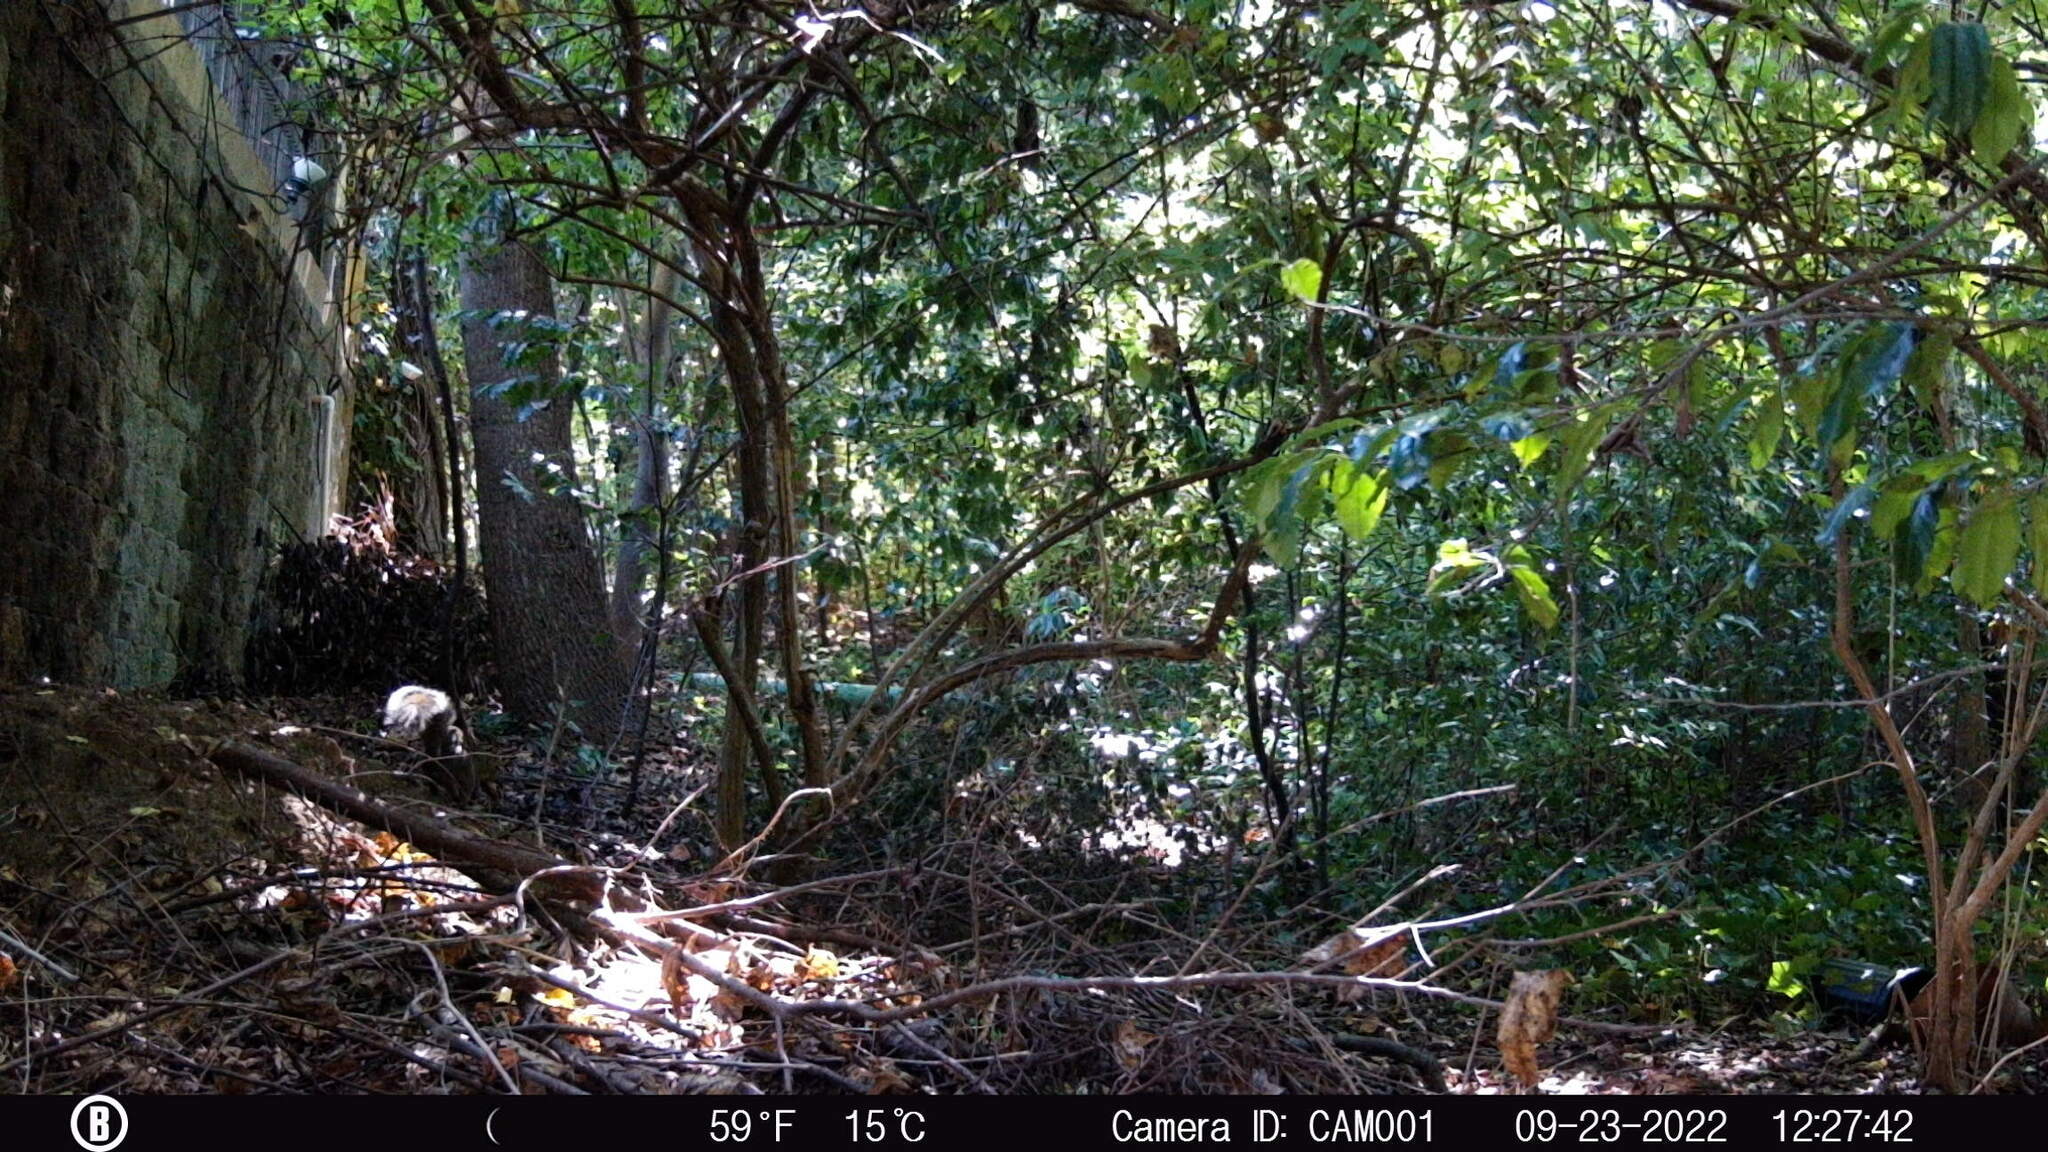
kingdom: Animalia
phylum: Chordata
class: Mammalia
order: Rodentia
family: Sciuridae
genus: Sciurus
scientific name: Sciurus carolinensis
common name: Eastern gray squirrel
